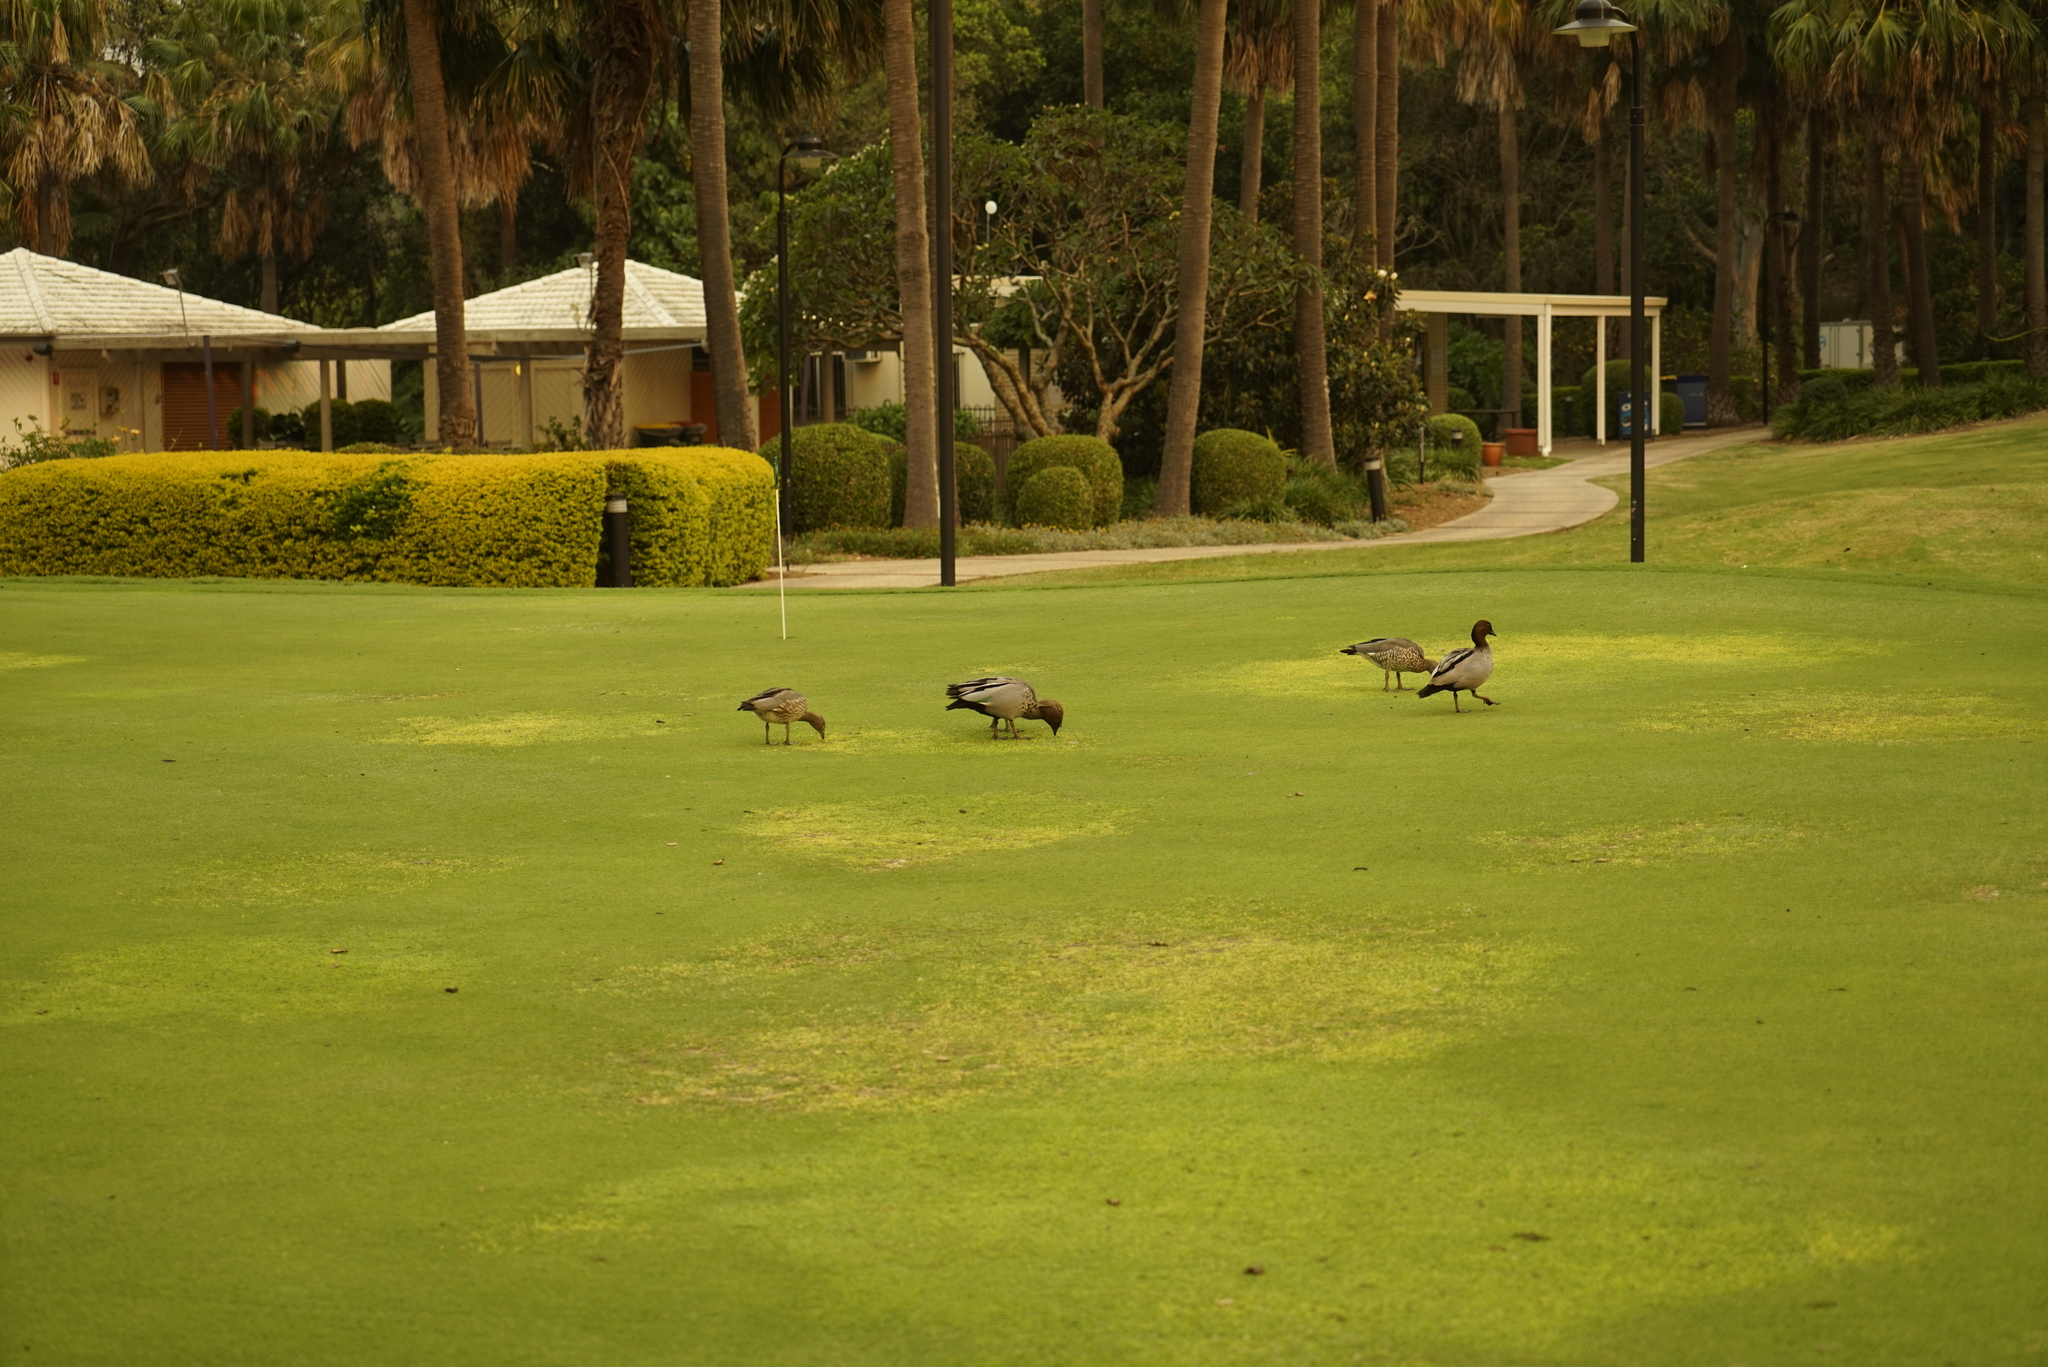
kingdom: Animalia
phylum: Chordata
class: Aves
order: Anseriformes
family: Anatidae
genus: Chenonetta
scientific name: Chenonetta jubata
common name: Maned duck
